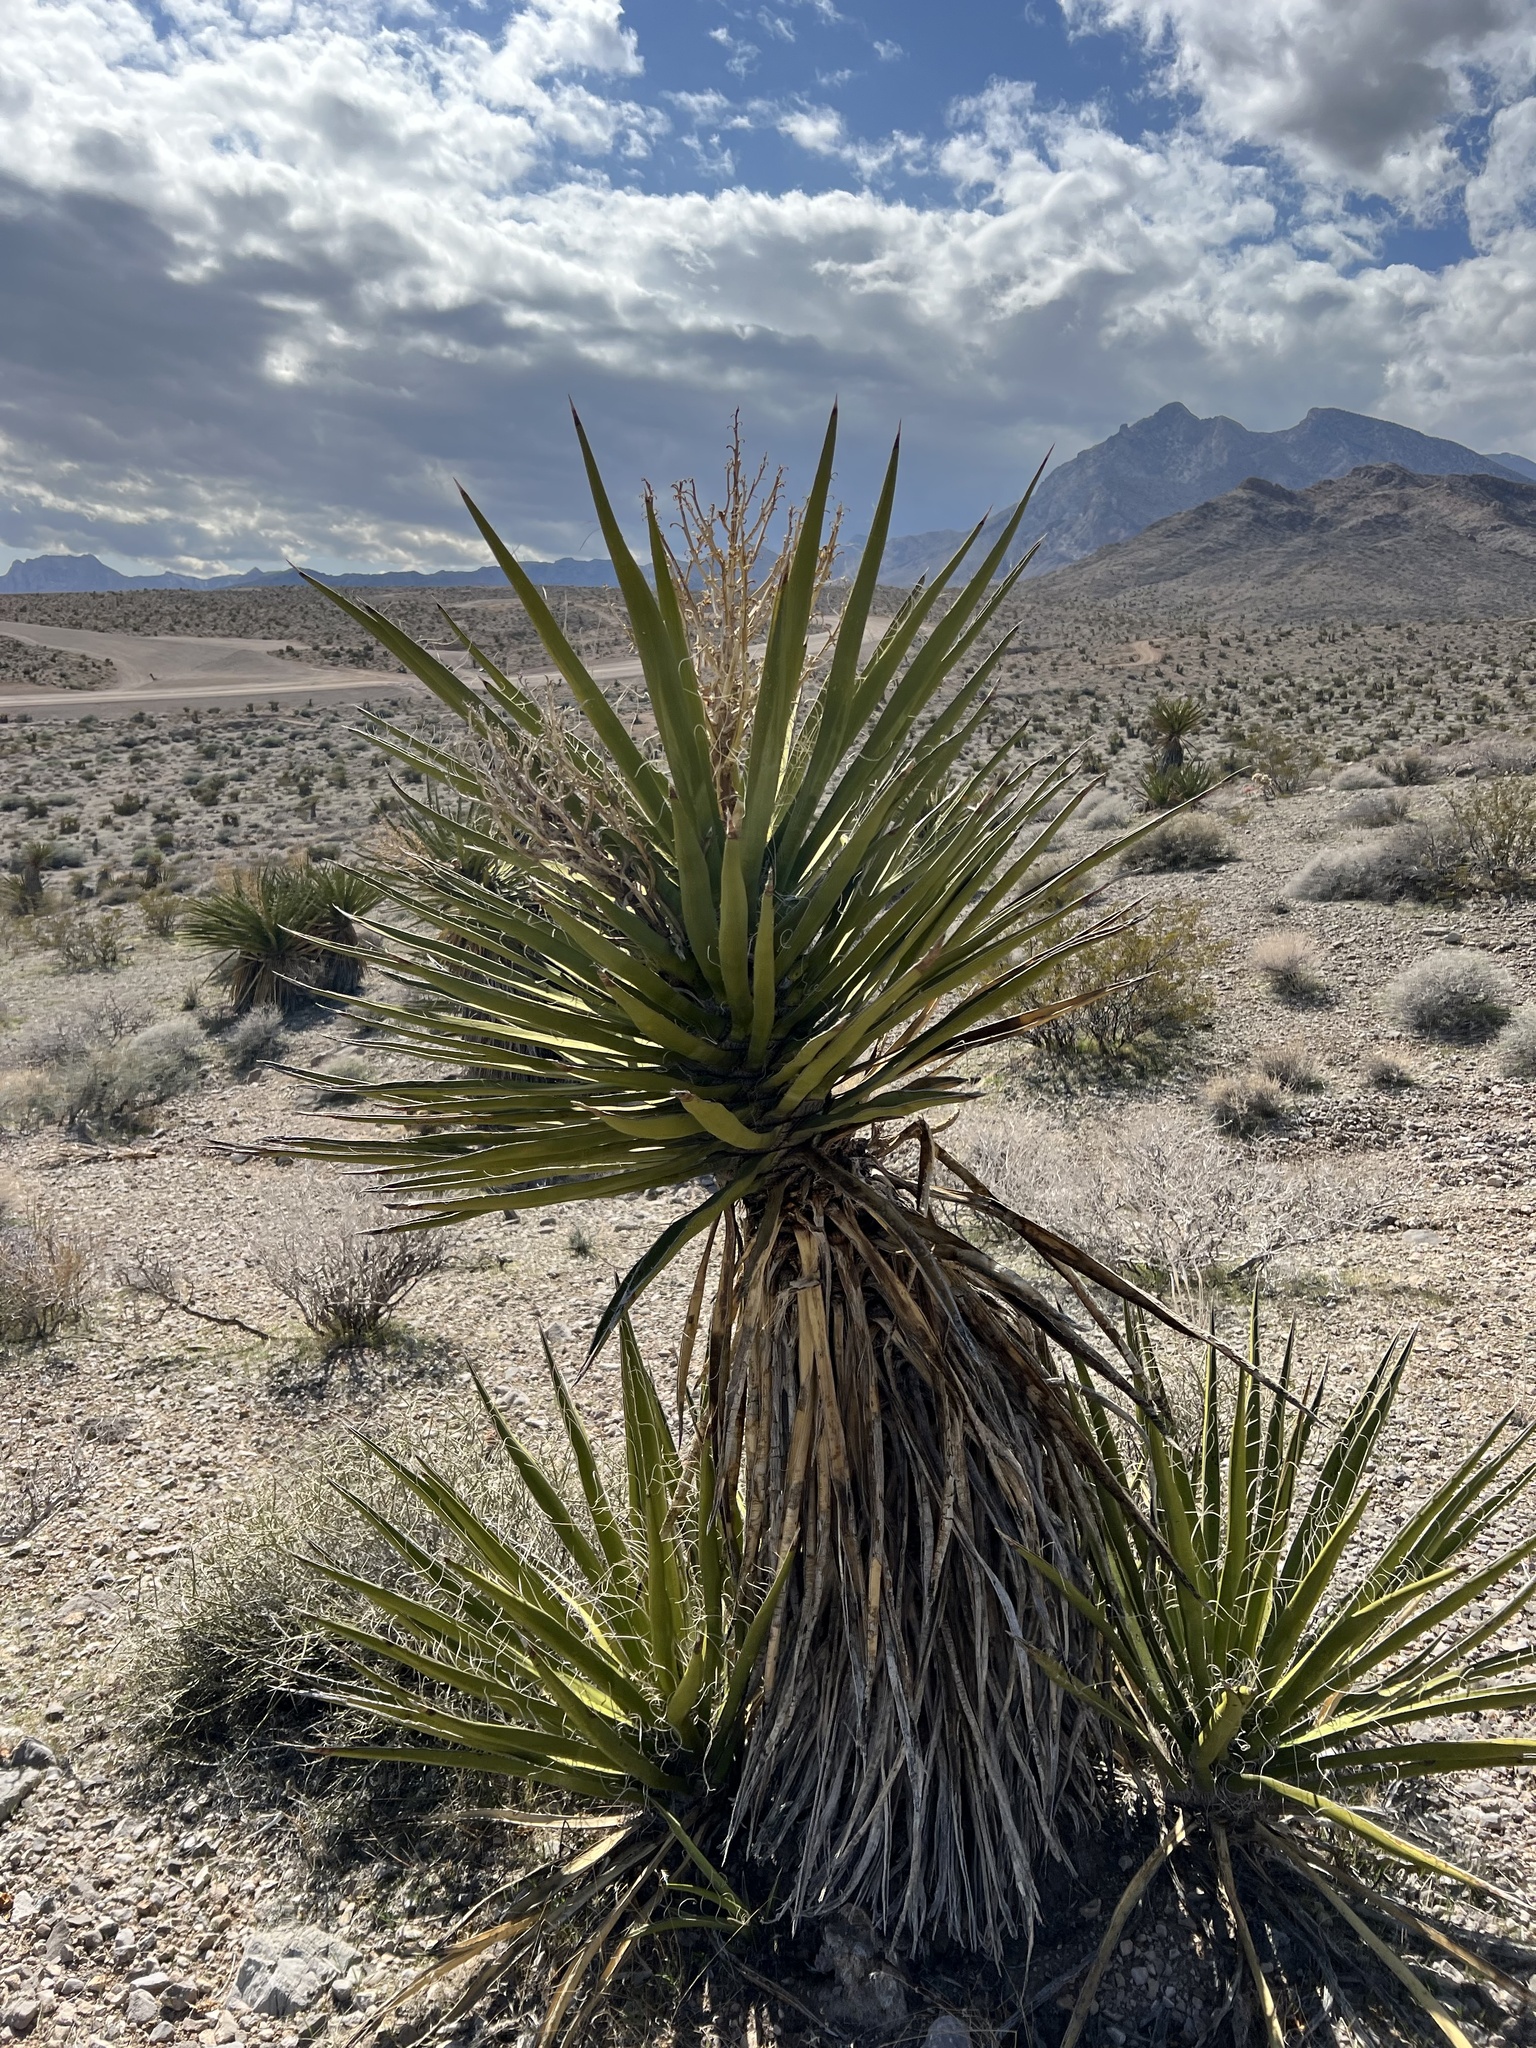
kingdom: Plantae
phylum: Tracheophyta
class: Liliopsida
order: Asparagales
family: Asparagaceae
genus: Yucca
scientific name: Yucca schidigera
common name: Mojave yucca
